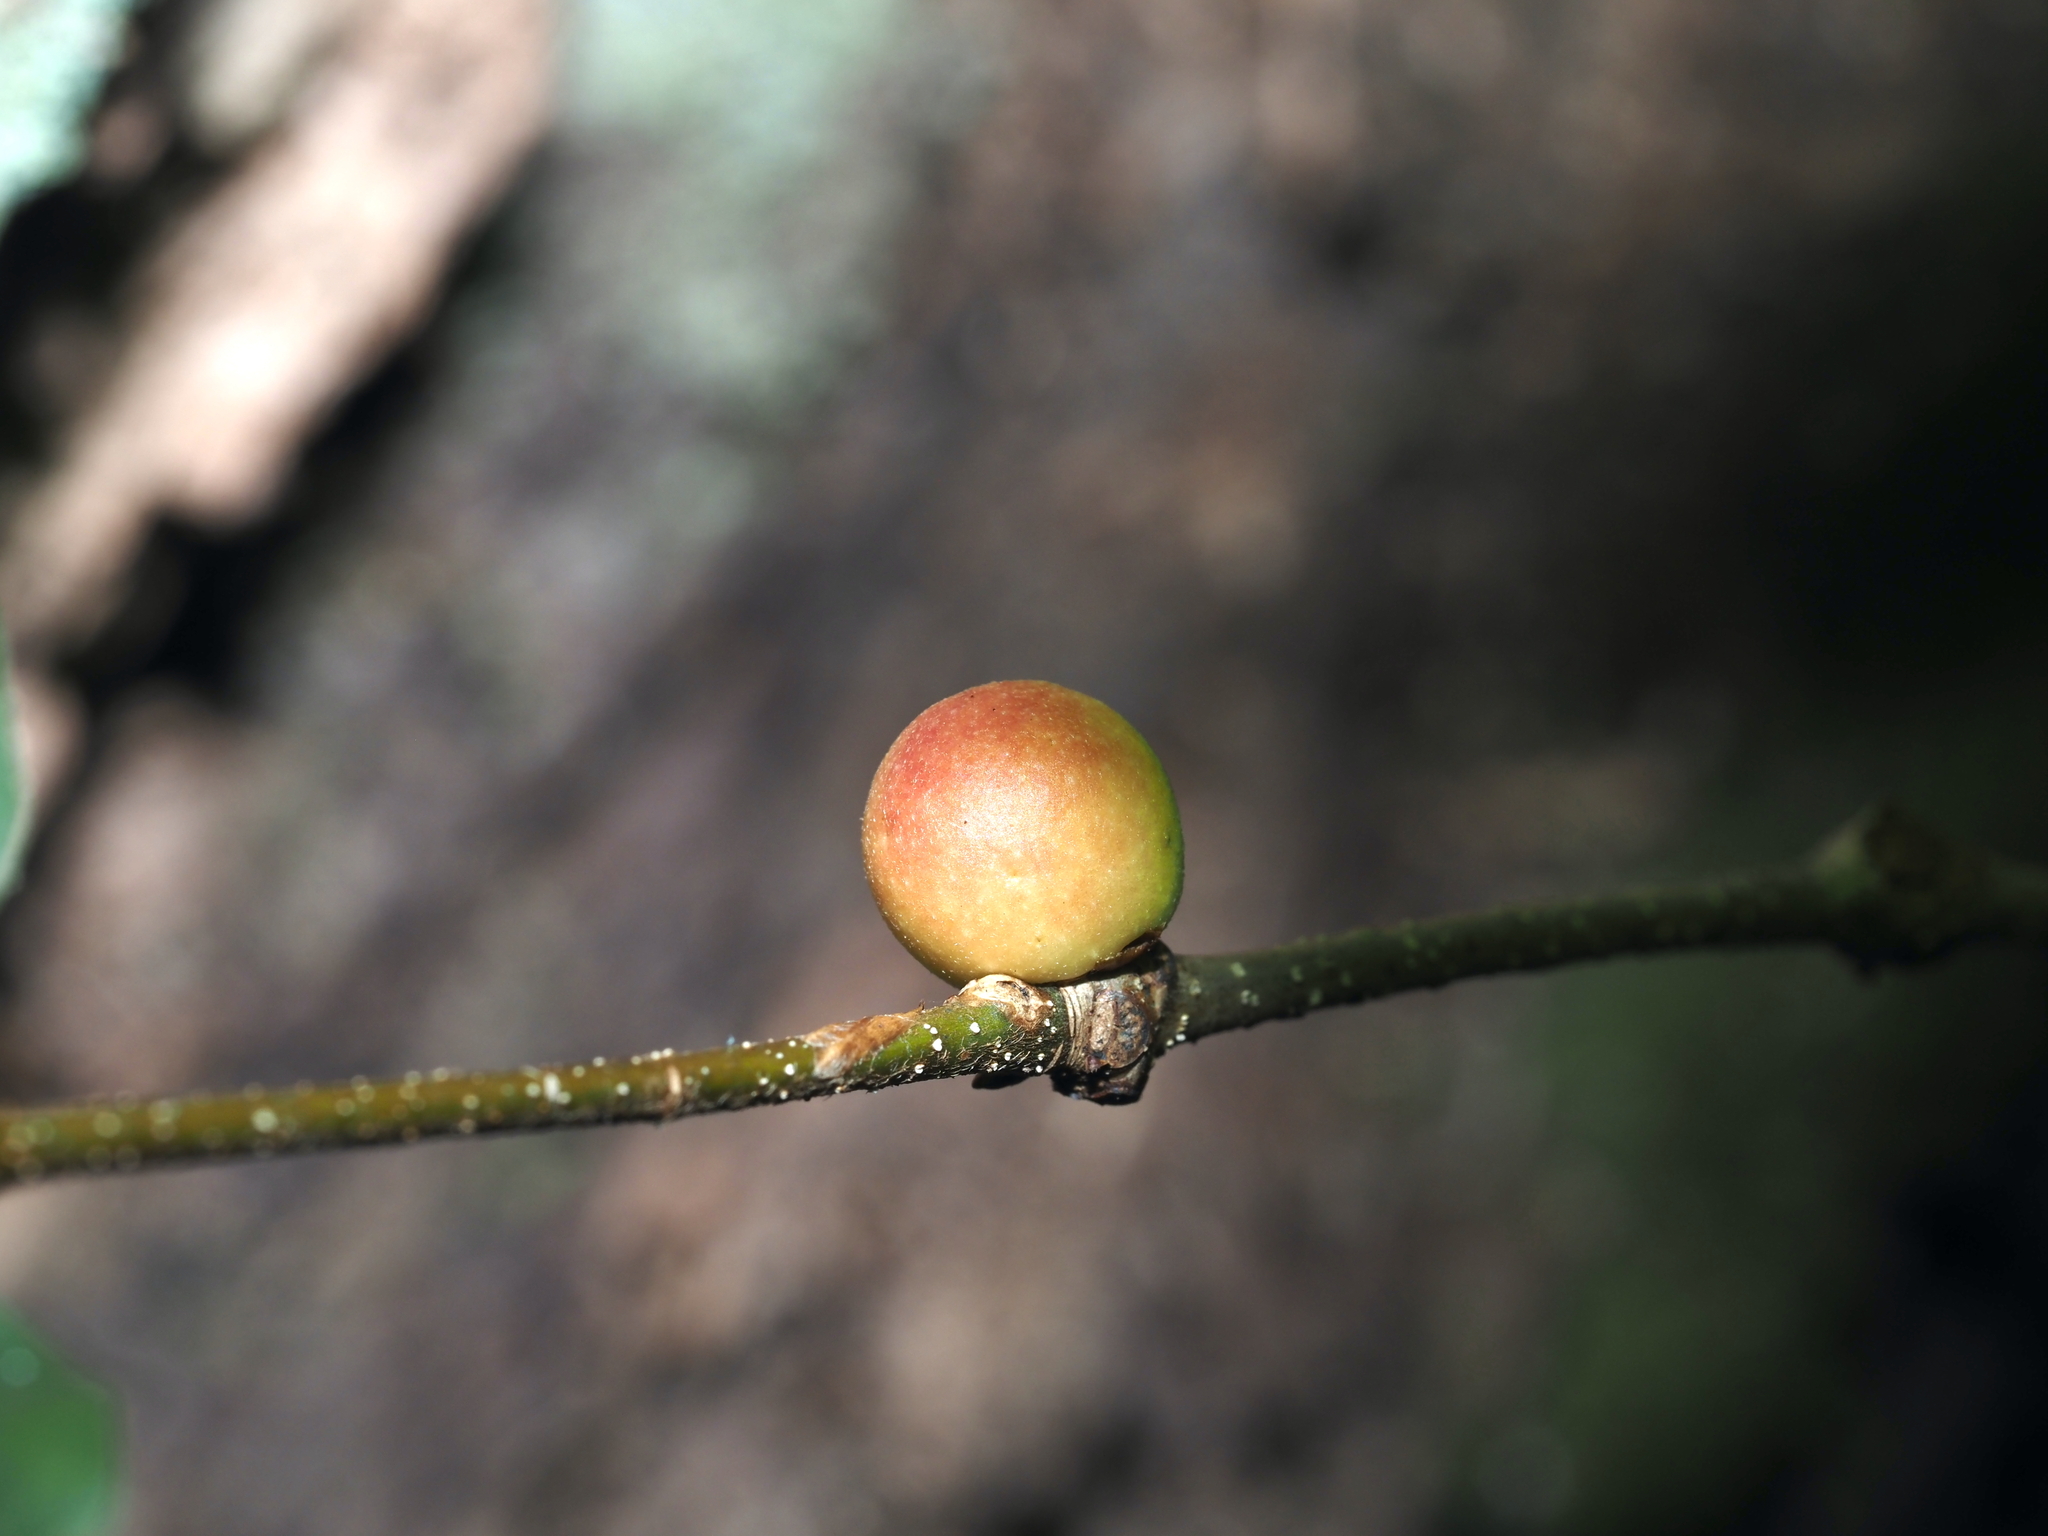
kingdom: Animalia
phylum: Arthropoda
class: Insecta
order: Hymenoptera
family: Cynipidae
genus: Disholcaspis
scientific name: Disholcaspis quercusglobulus
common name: Round bullet gall wasp
